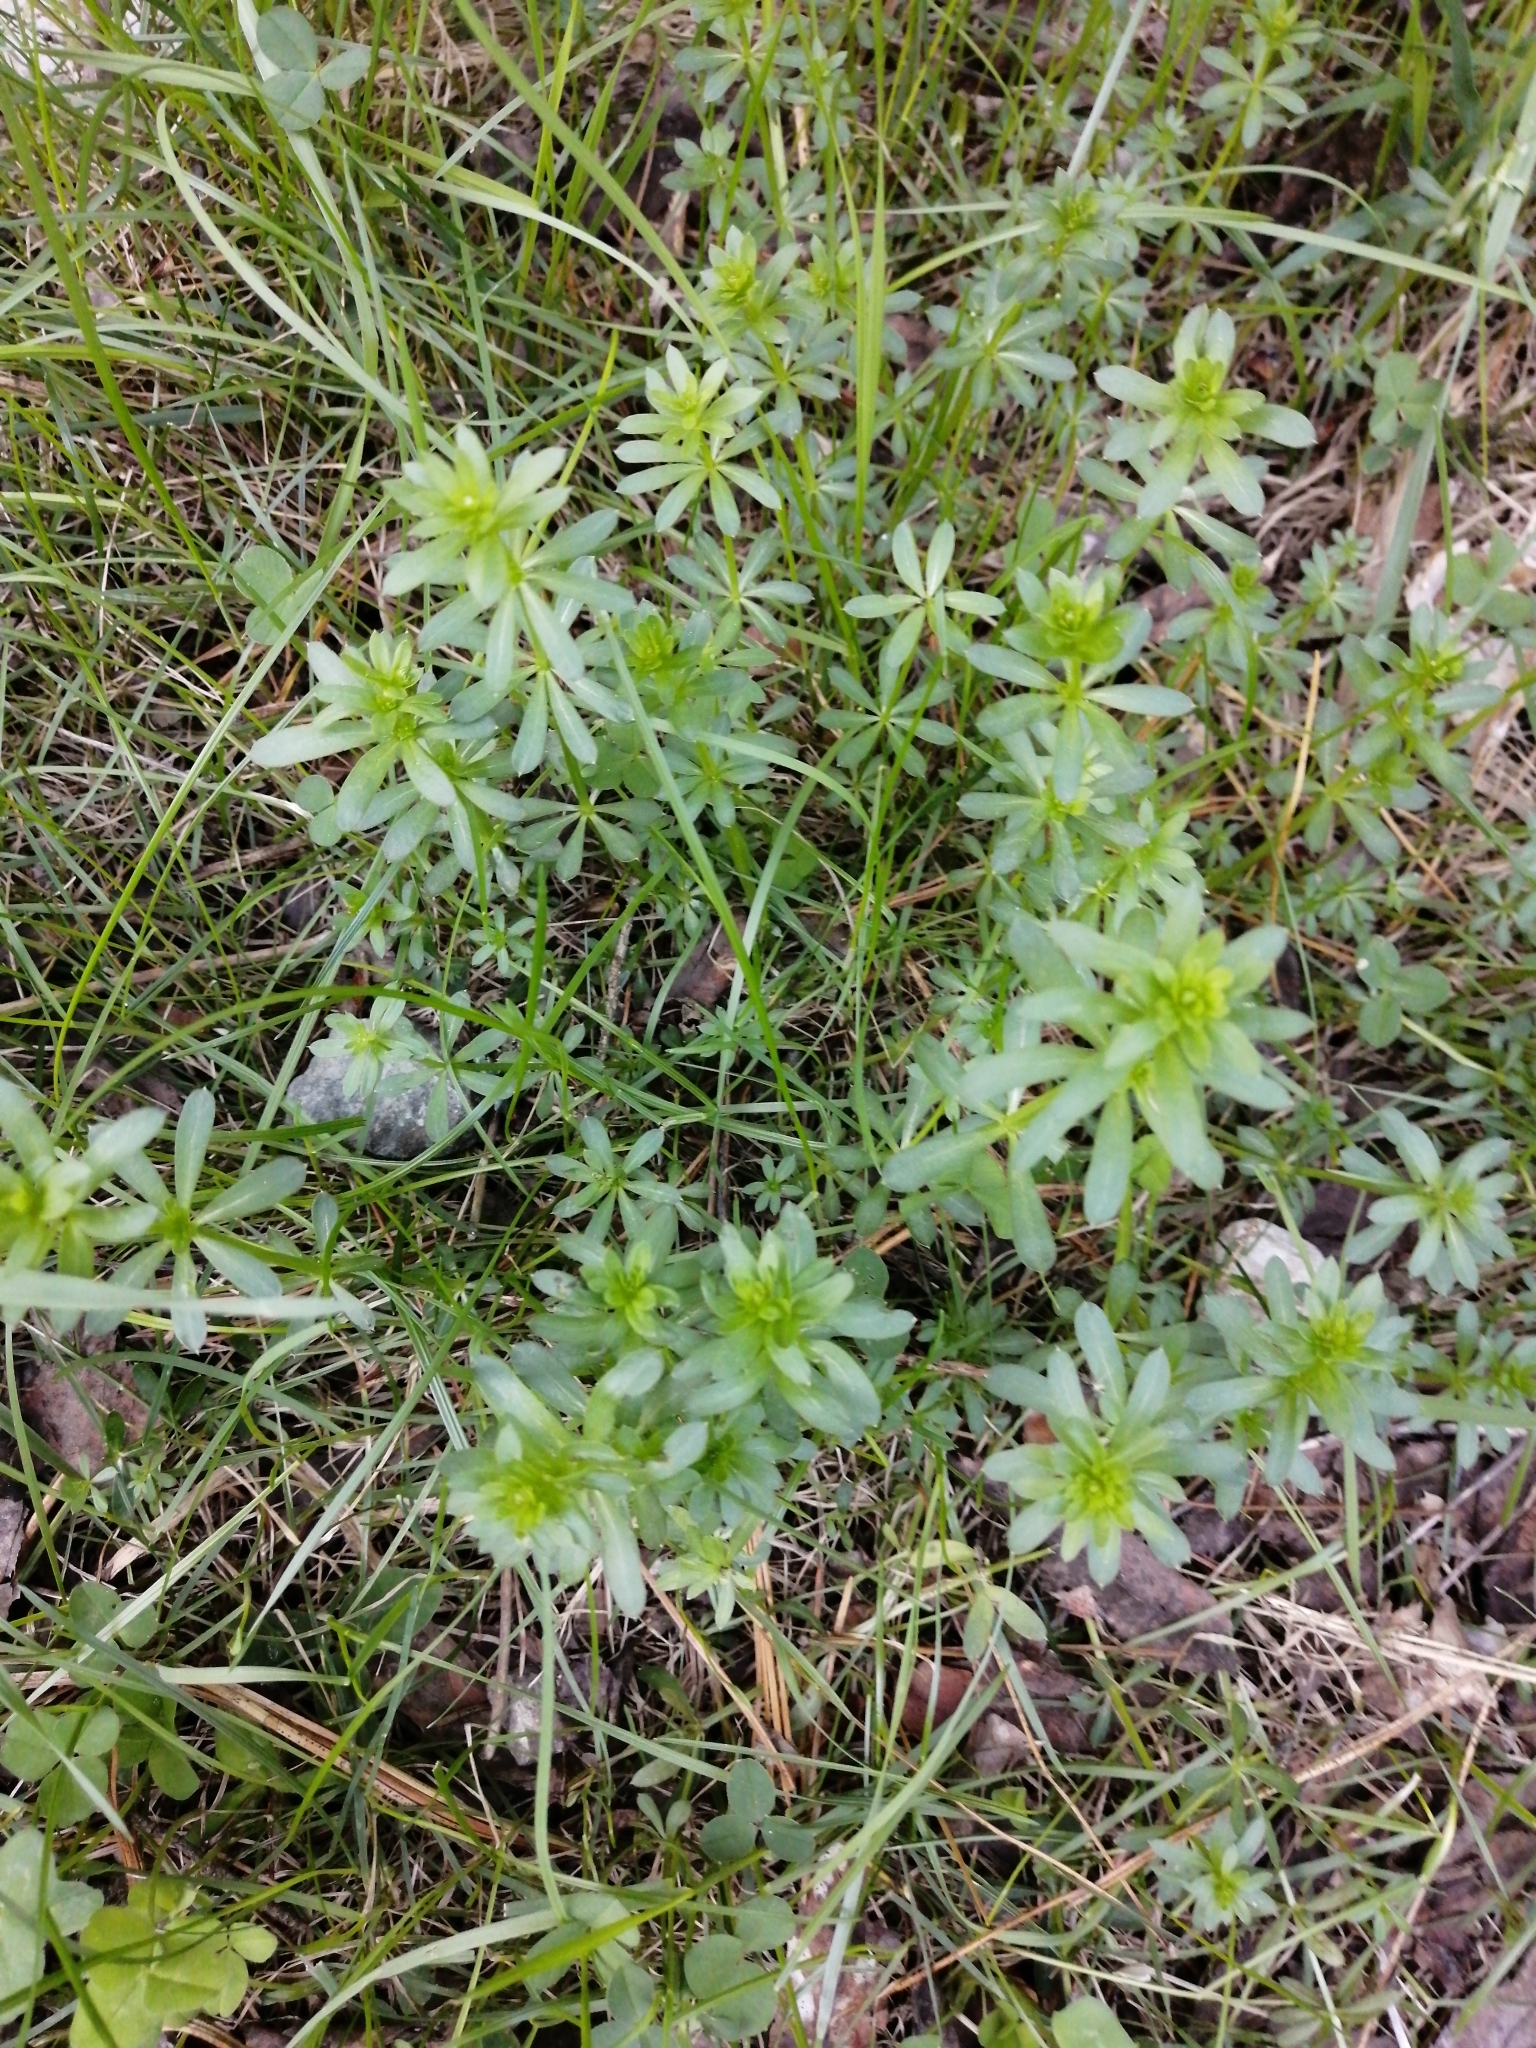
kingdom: Plantae
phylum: Tracheophyta
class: Magnoliopsida
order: Gentianales
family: Rubiaceae
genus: Galium
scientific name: Galium mollugo
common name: Hedge bedstraw
